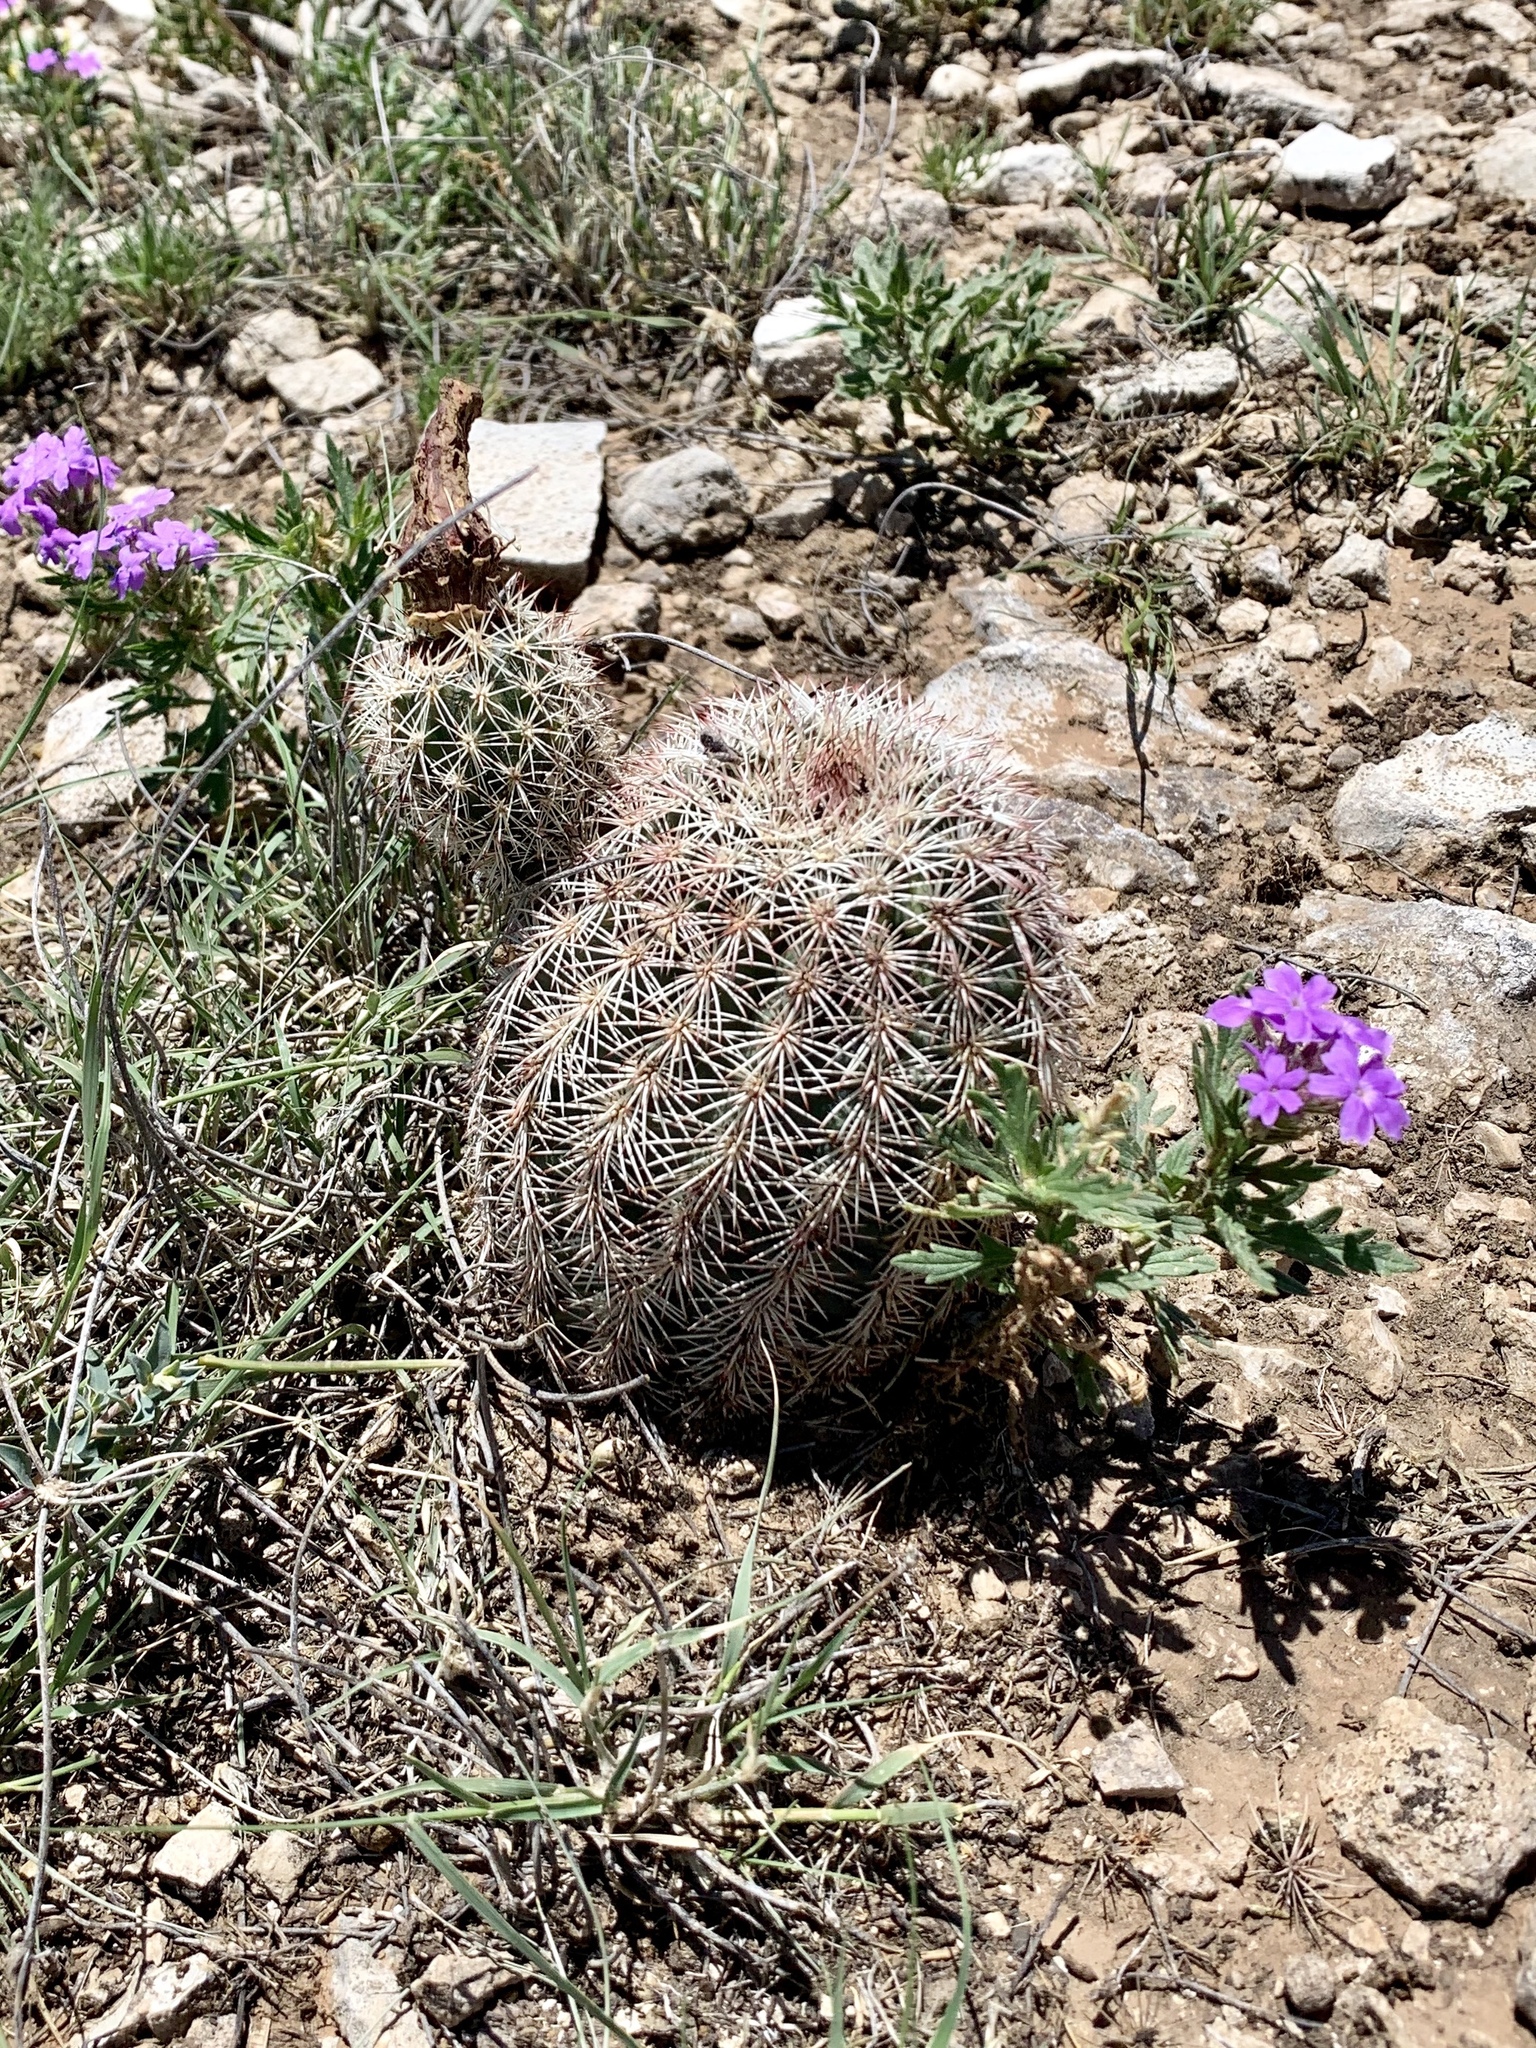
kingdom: Plantae
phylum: Tracheophyta
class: Magnoliopsida
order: Caryophyllales
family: Cactaceae
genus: Echinocereus
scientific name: Echinocereus dasyacanthus
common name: Spiny hedgehog cactus
